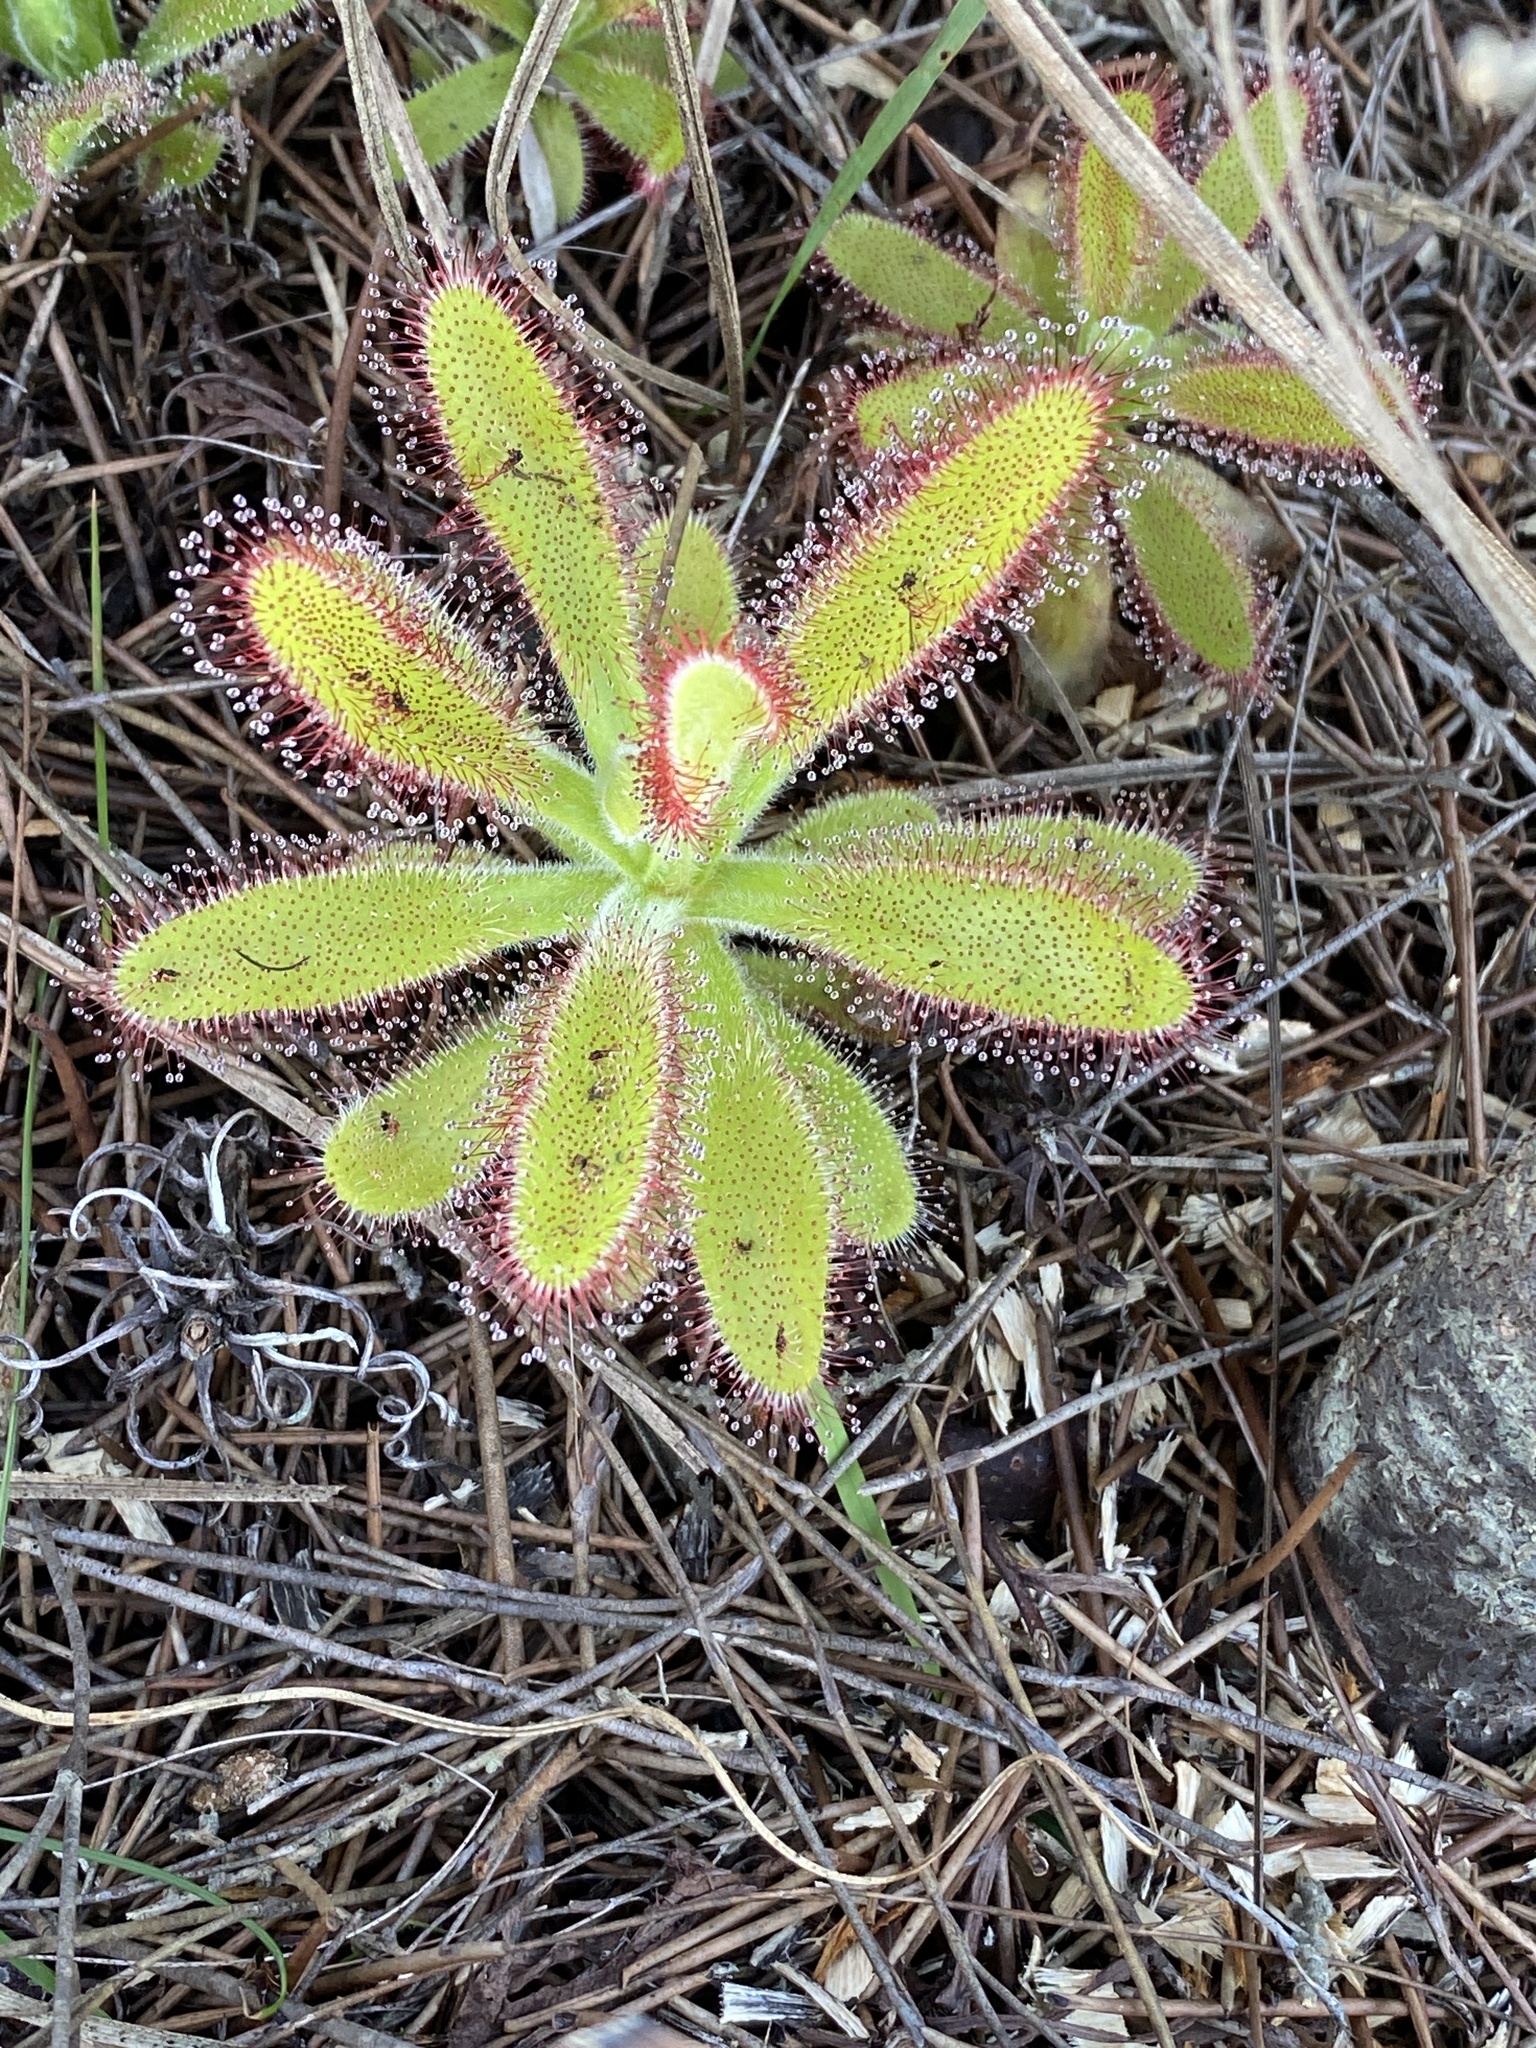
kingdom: Plantae
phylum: Tracheophyta
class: Magnoliopsida
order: Caryophyllales
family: Droseraceae
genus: Drosera
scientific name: Drosera hilaris
